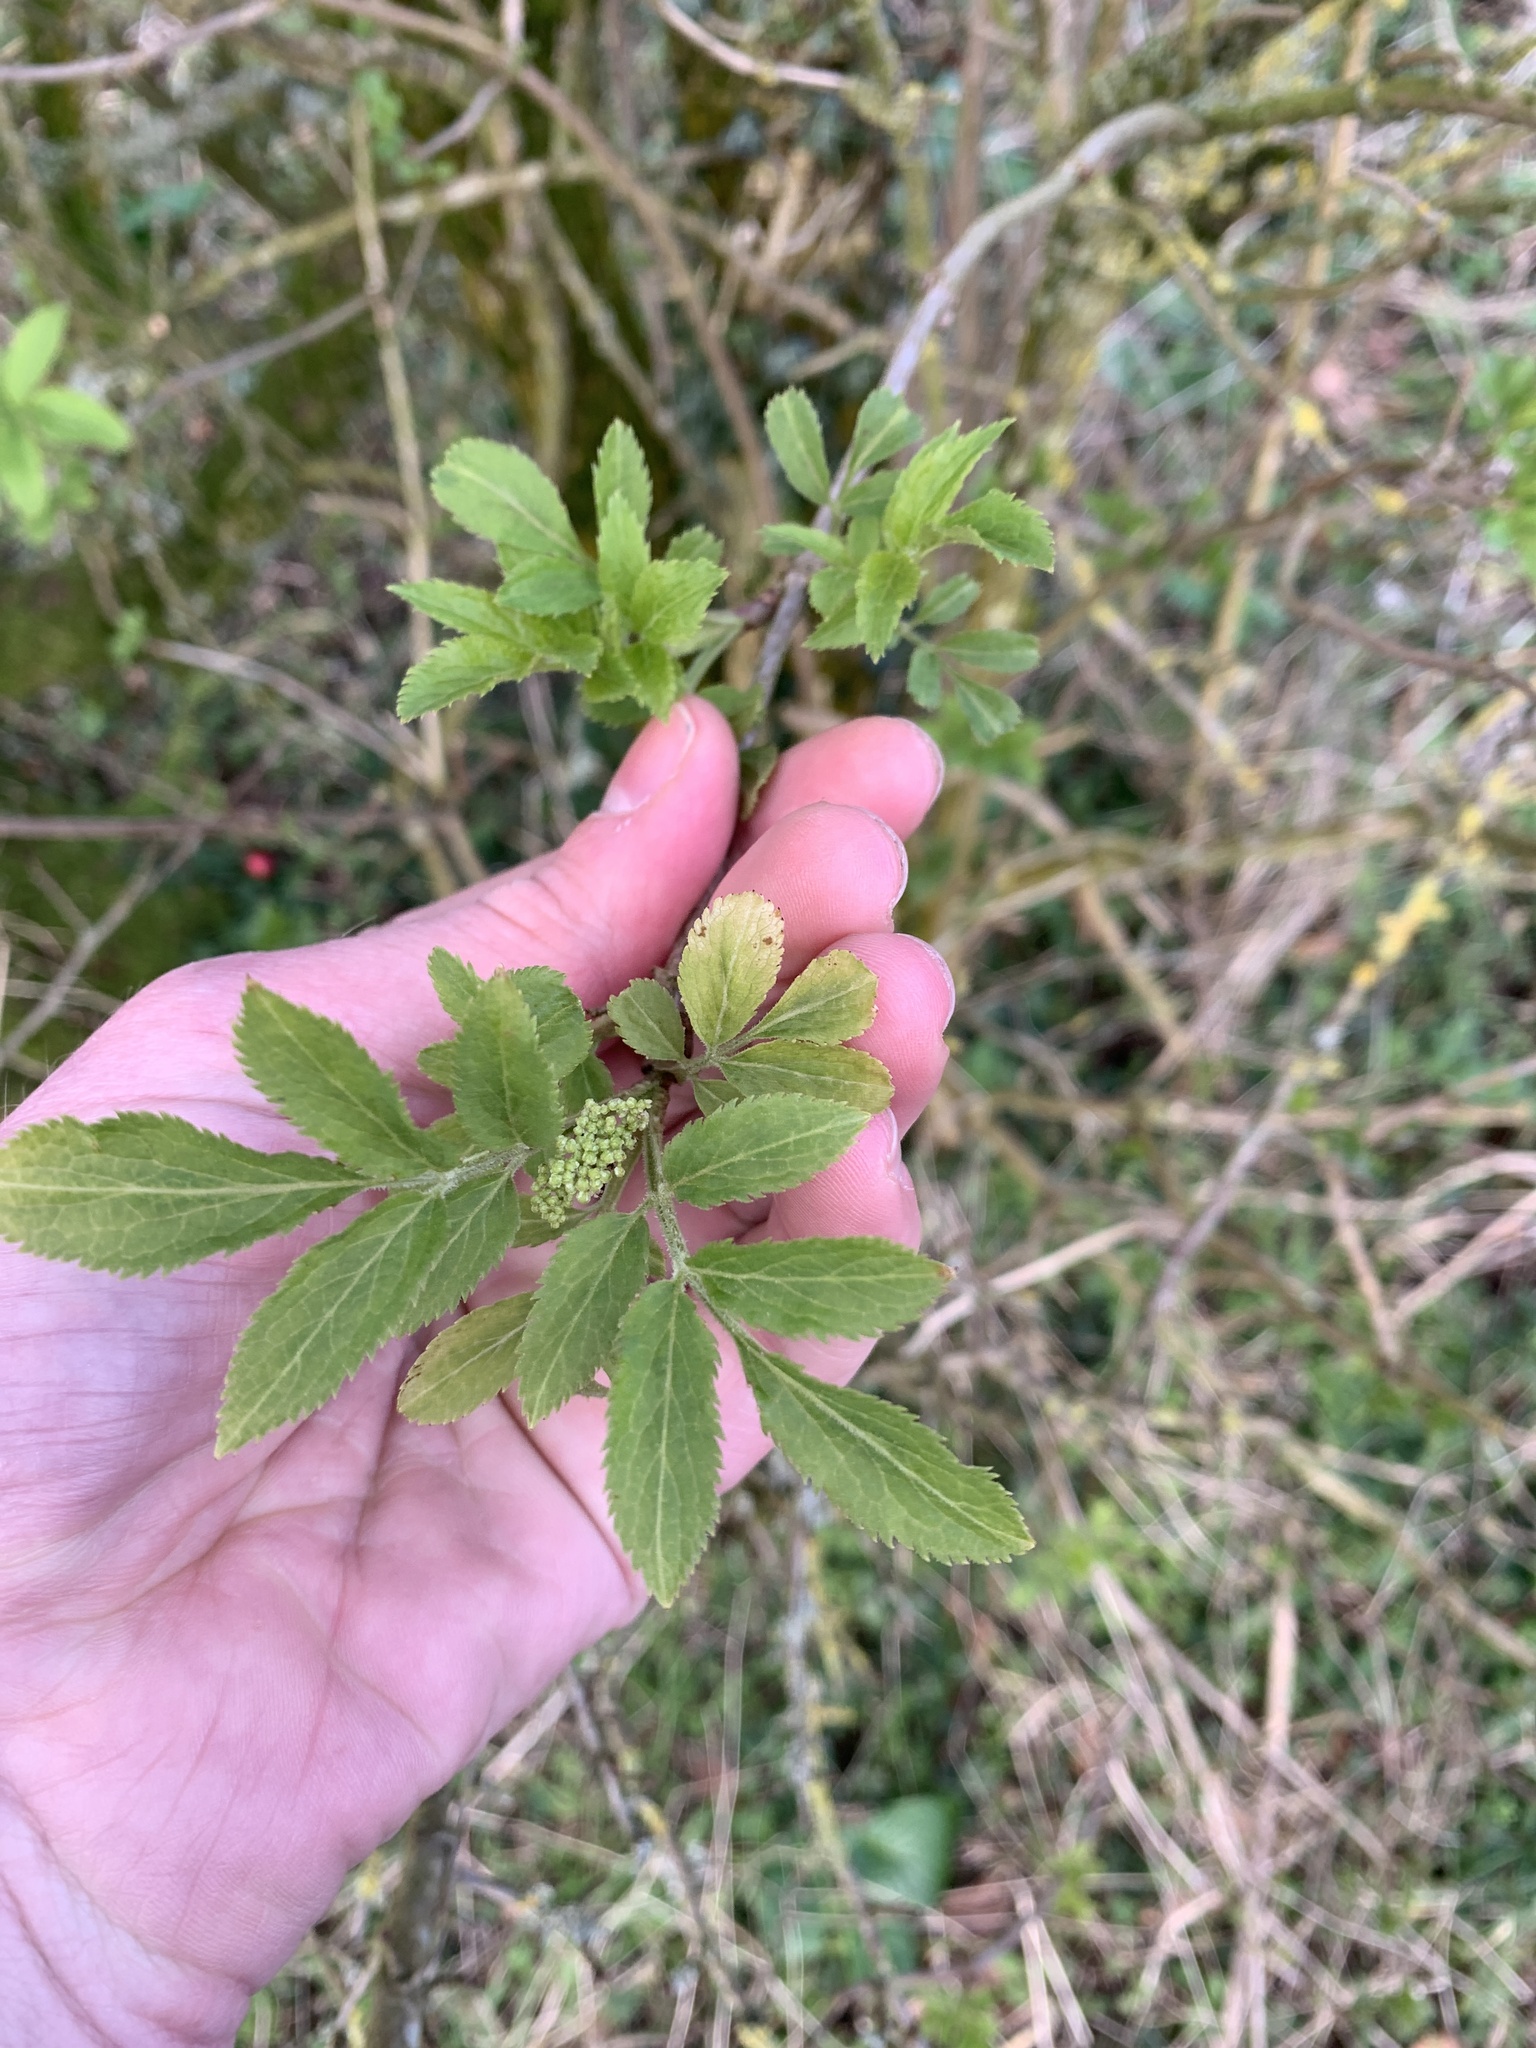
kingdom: Plantae
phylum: Tracheophyta
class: Magnoliopsida
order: Dipsacales
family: Viburnaceae
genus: Sambucus
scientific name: Sambucus nigra
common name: Elder
